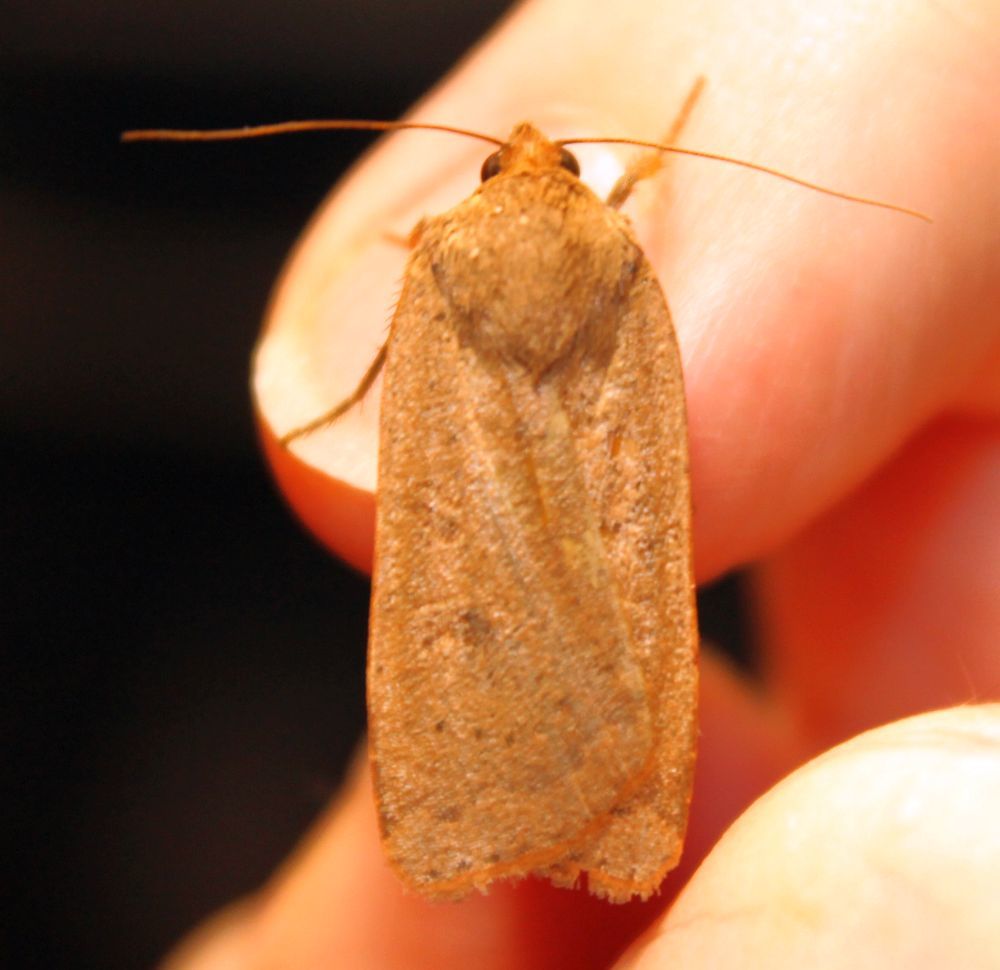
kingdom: Animalia
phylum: Arthropoda
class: Insecta
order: Lepidoptera
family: Noctuidae
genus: Noctua
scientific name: Noctua comes
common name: Lesser yellow underwing
